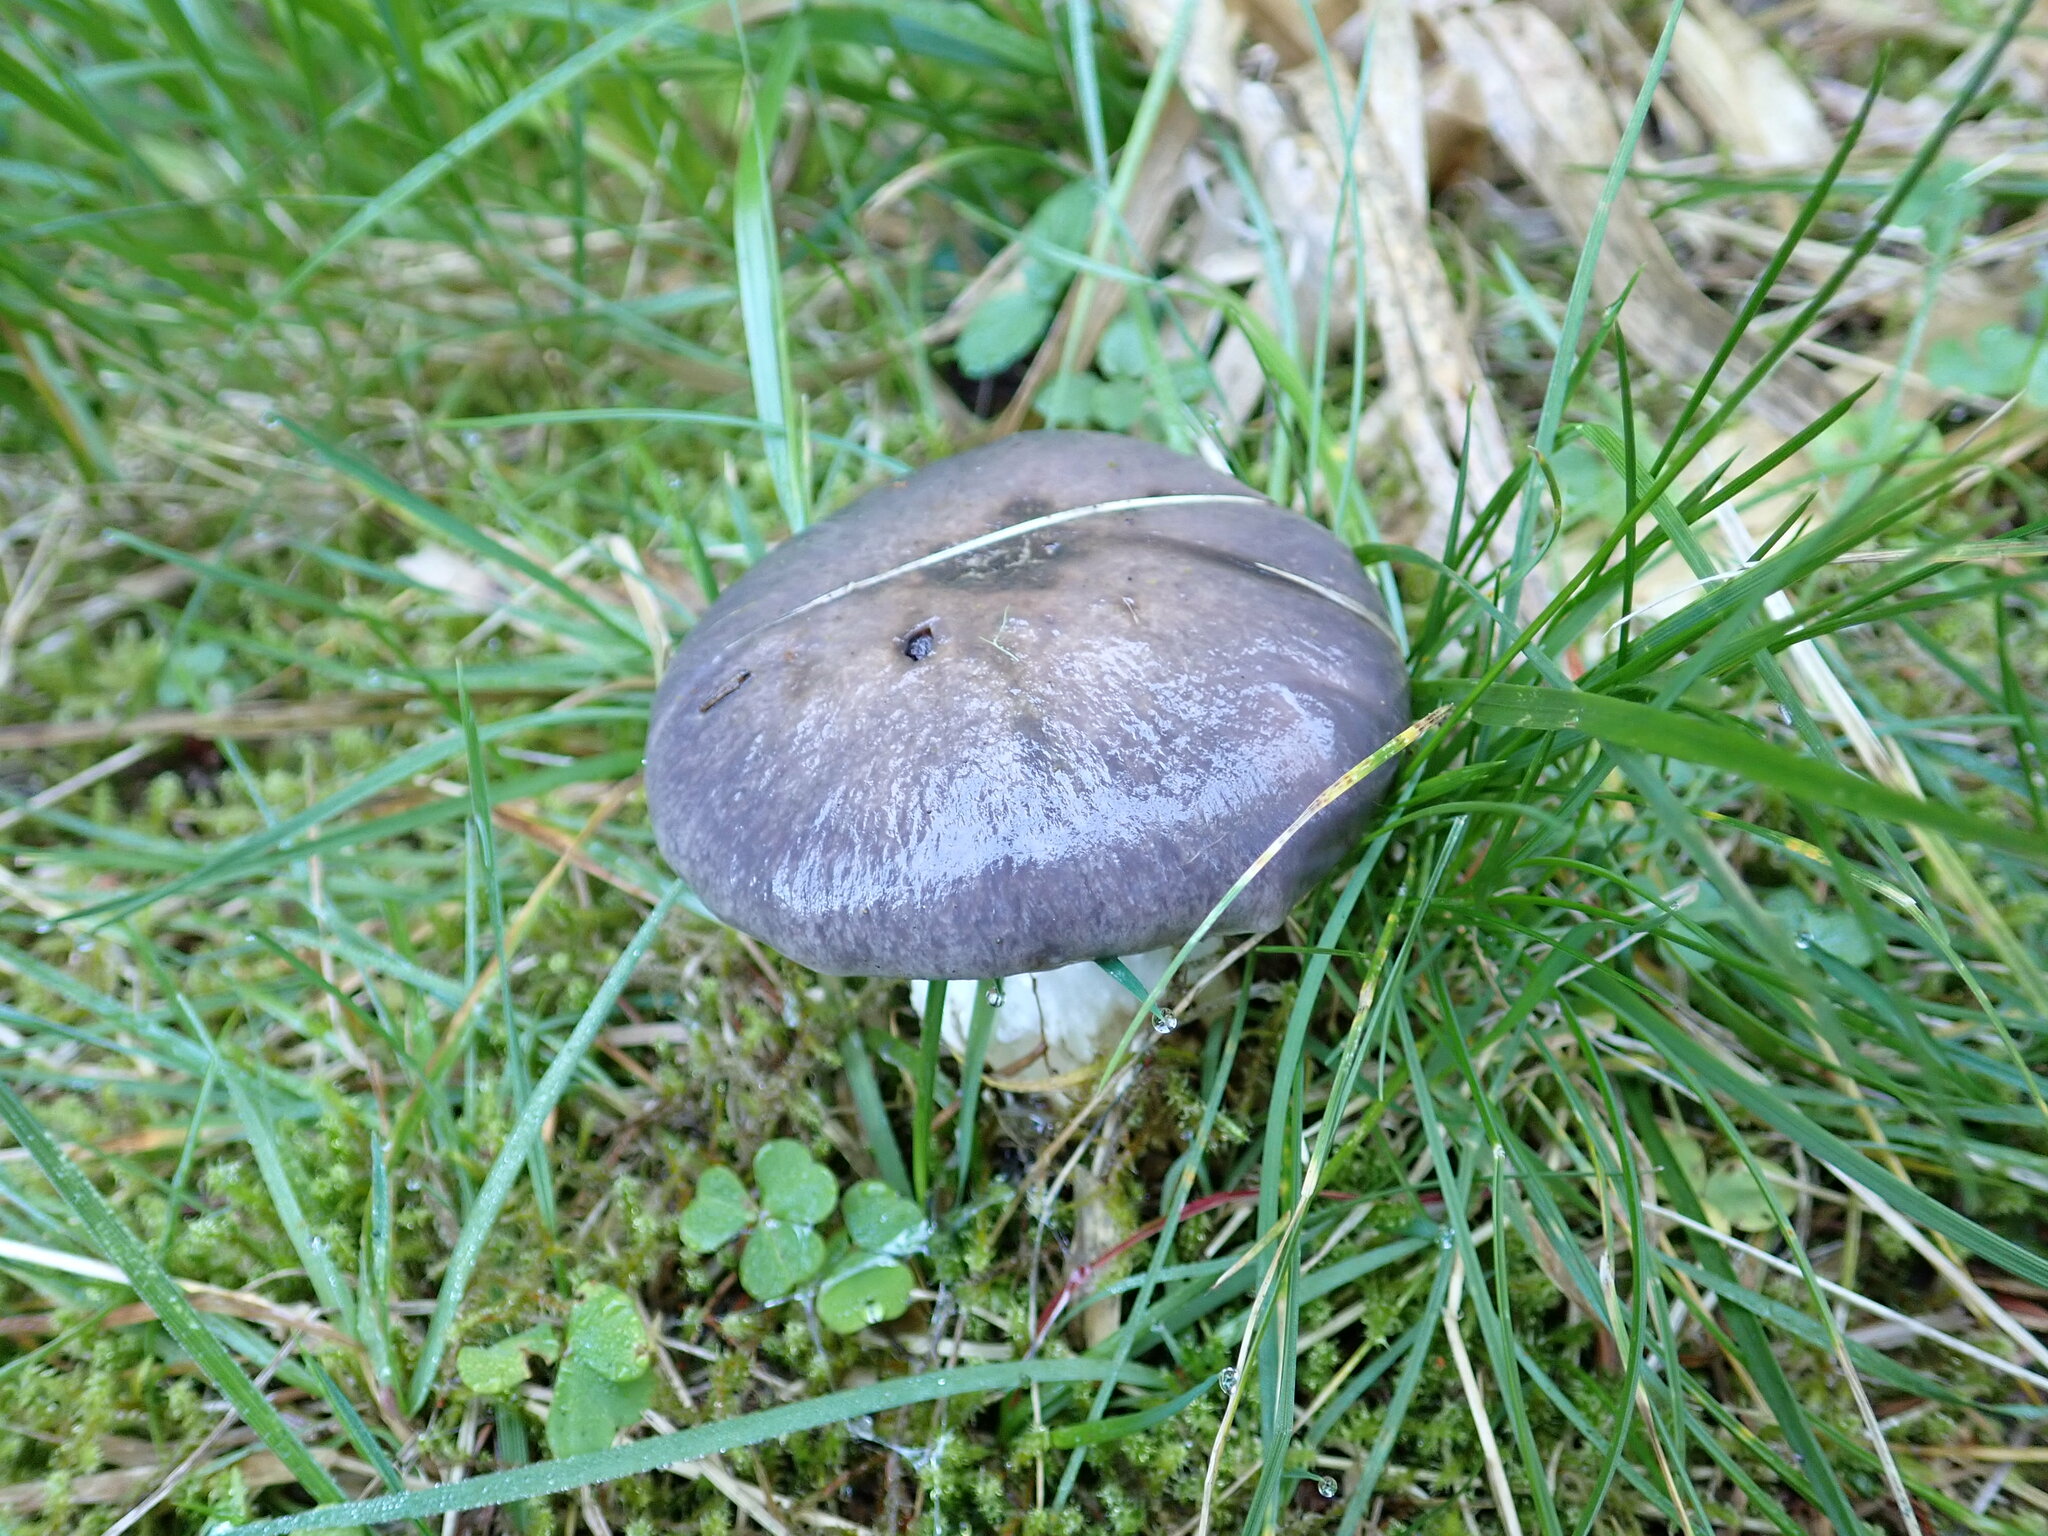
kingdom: Fungi
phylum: Basidiomycota
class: Agaricomycetes
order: Boletales
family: Gomphidiaceae
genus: Gomphidius
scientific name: Gomphidius glutinosus
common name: Slimy spike
